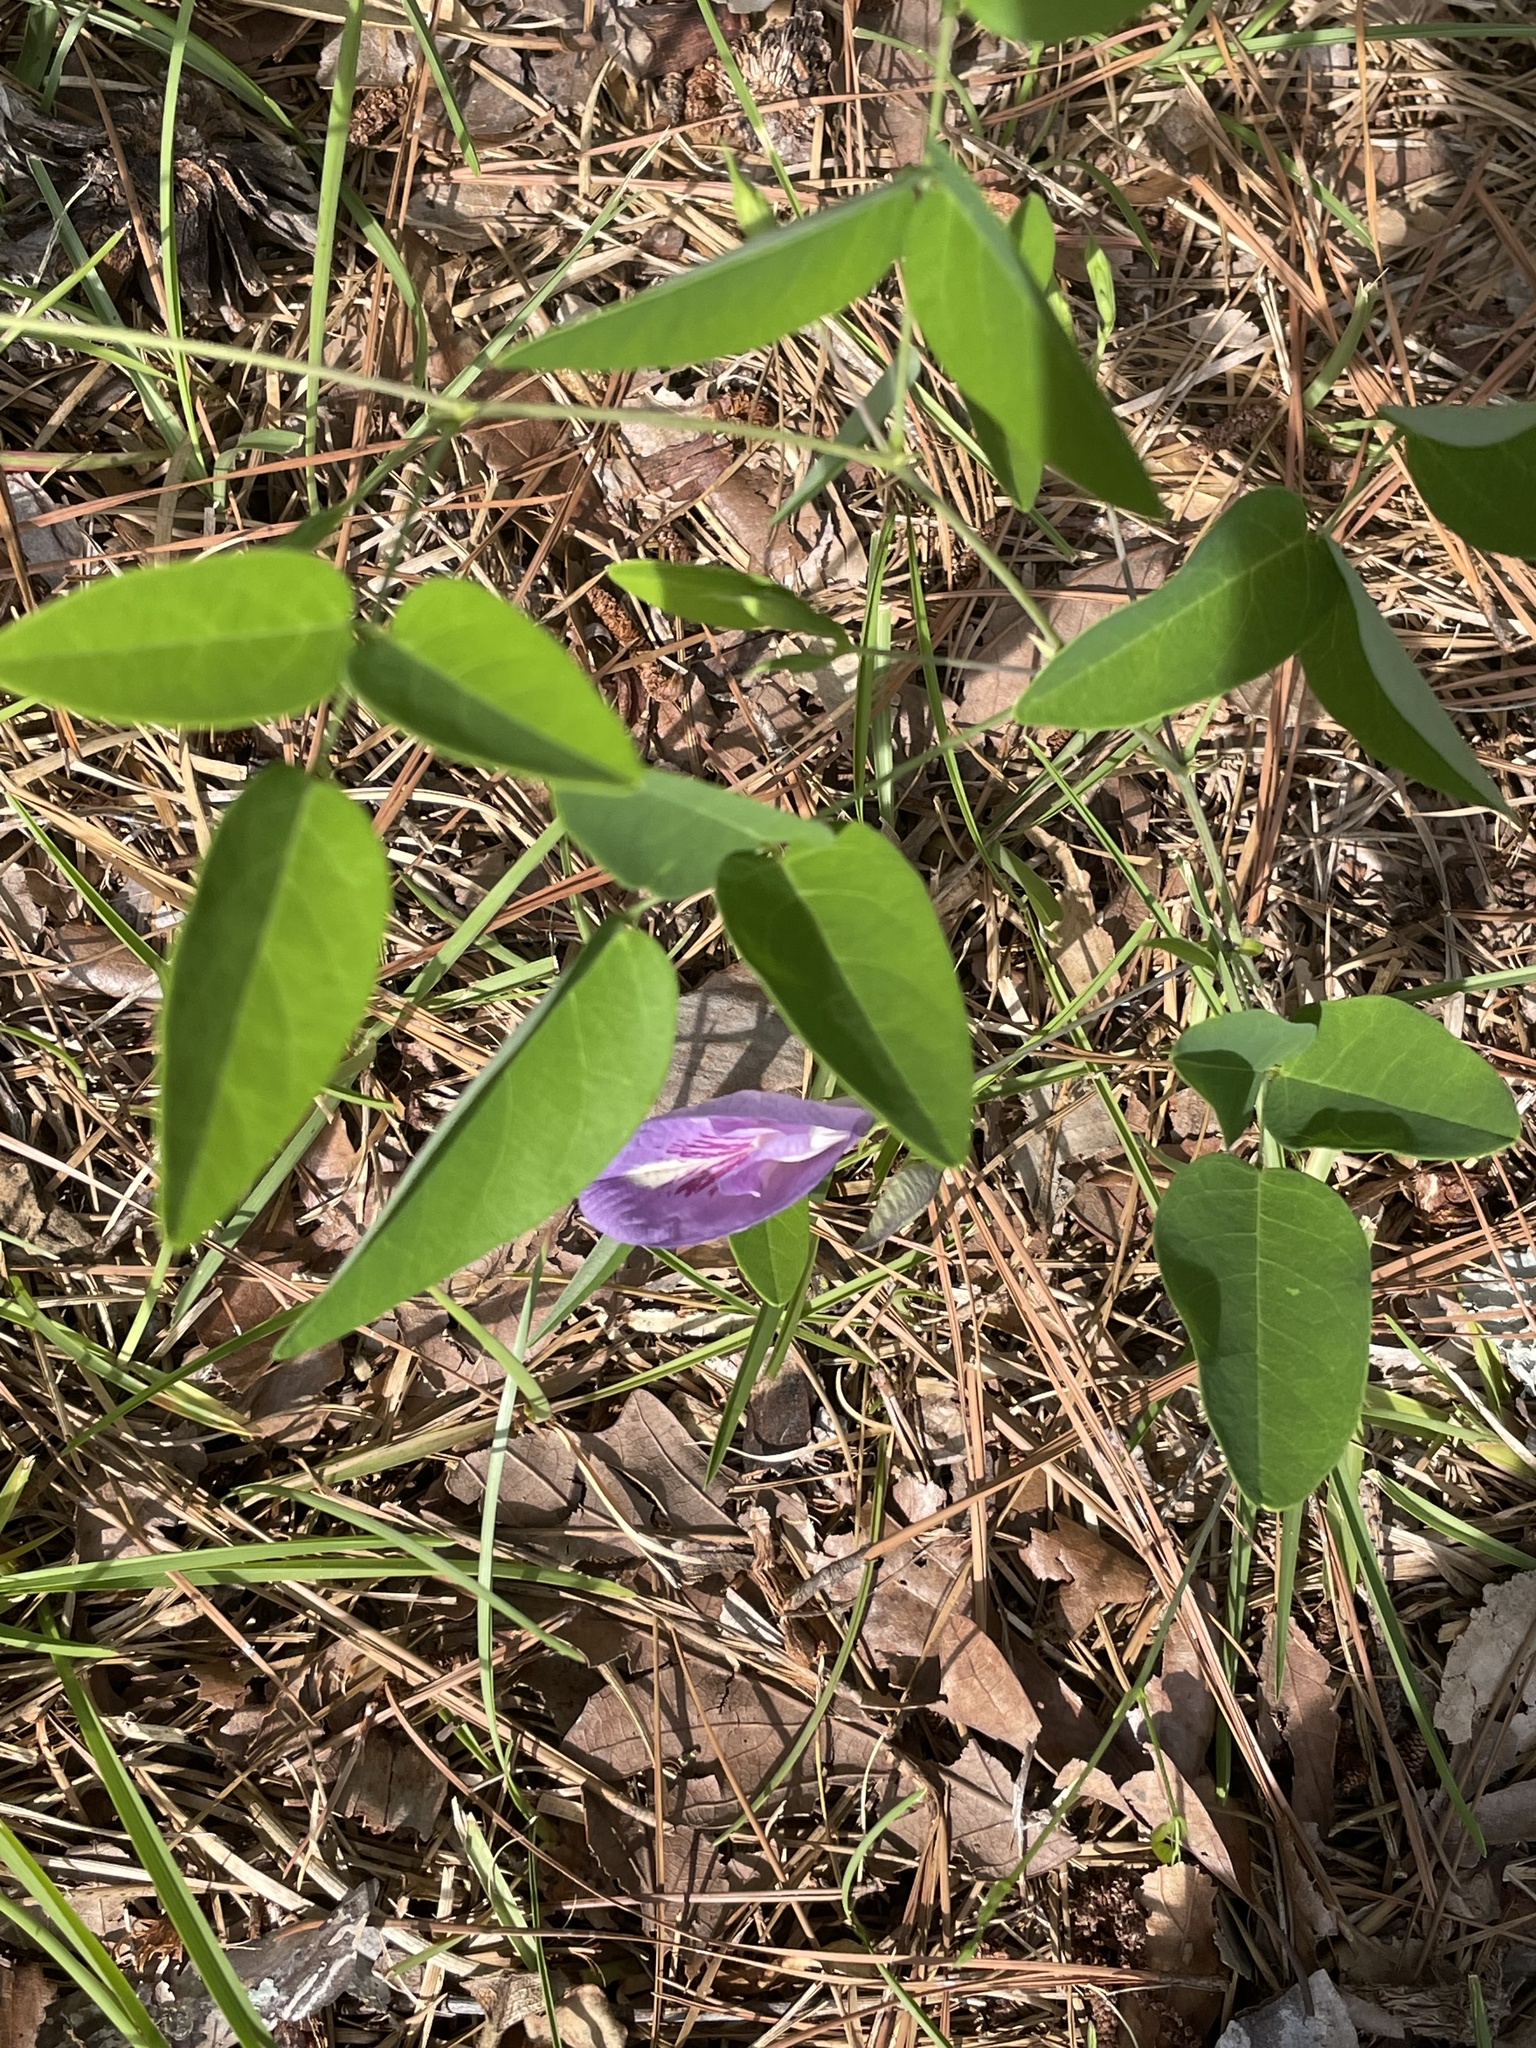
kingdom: Plantae
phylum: Tracheophyta
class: Magnoliopsida
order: Fabales
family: Fabaceae
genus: Clitoria
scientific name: Clitoria mariana
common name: Butterfly-pea
